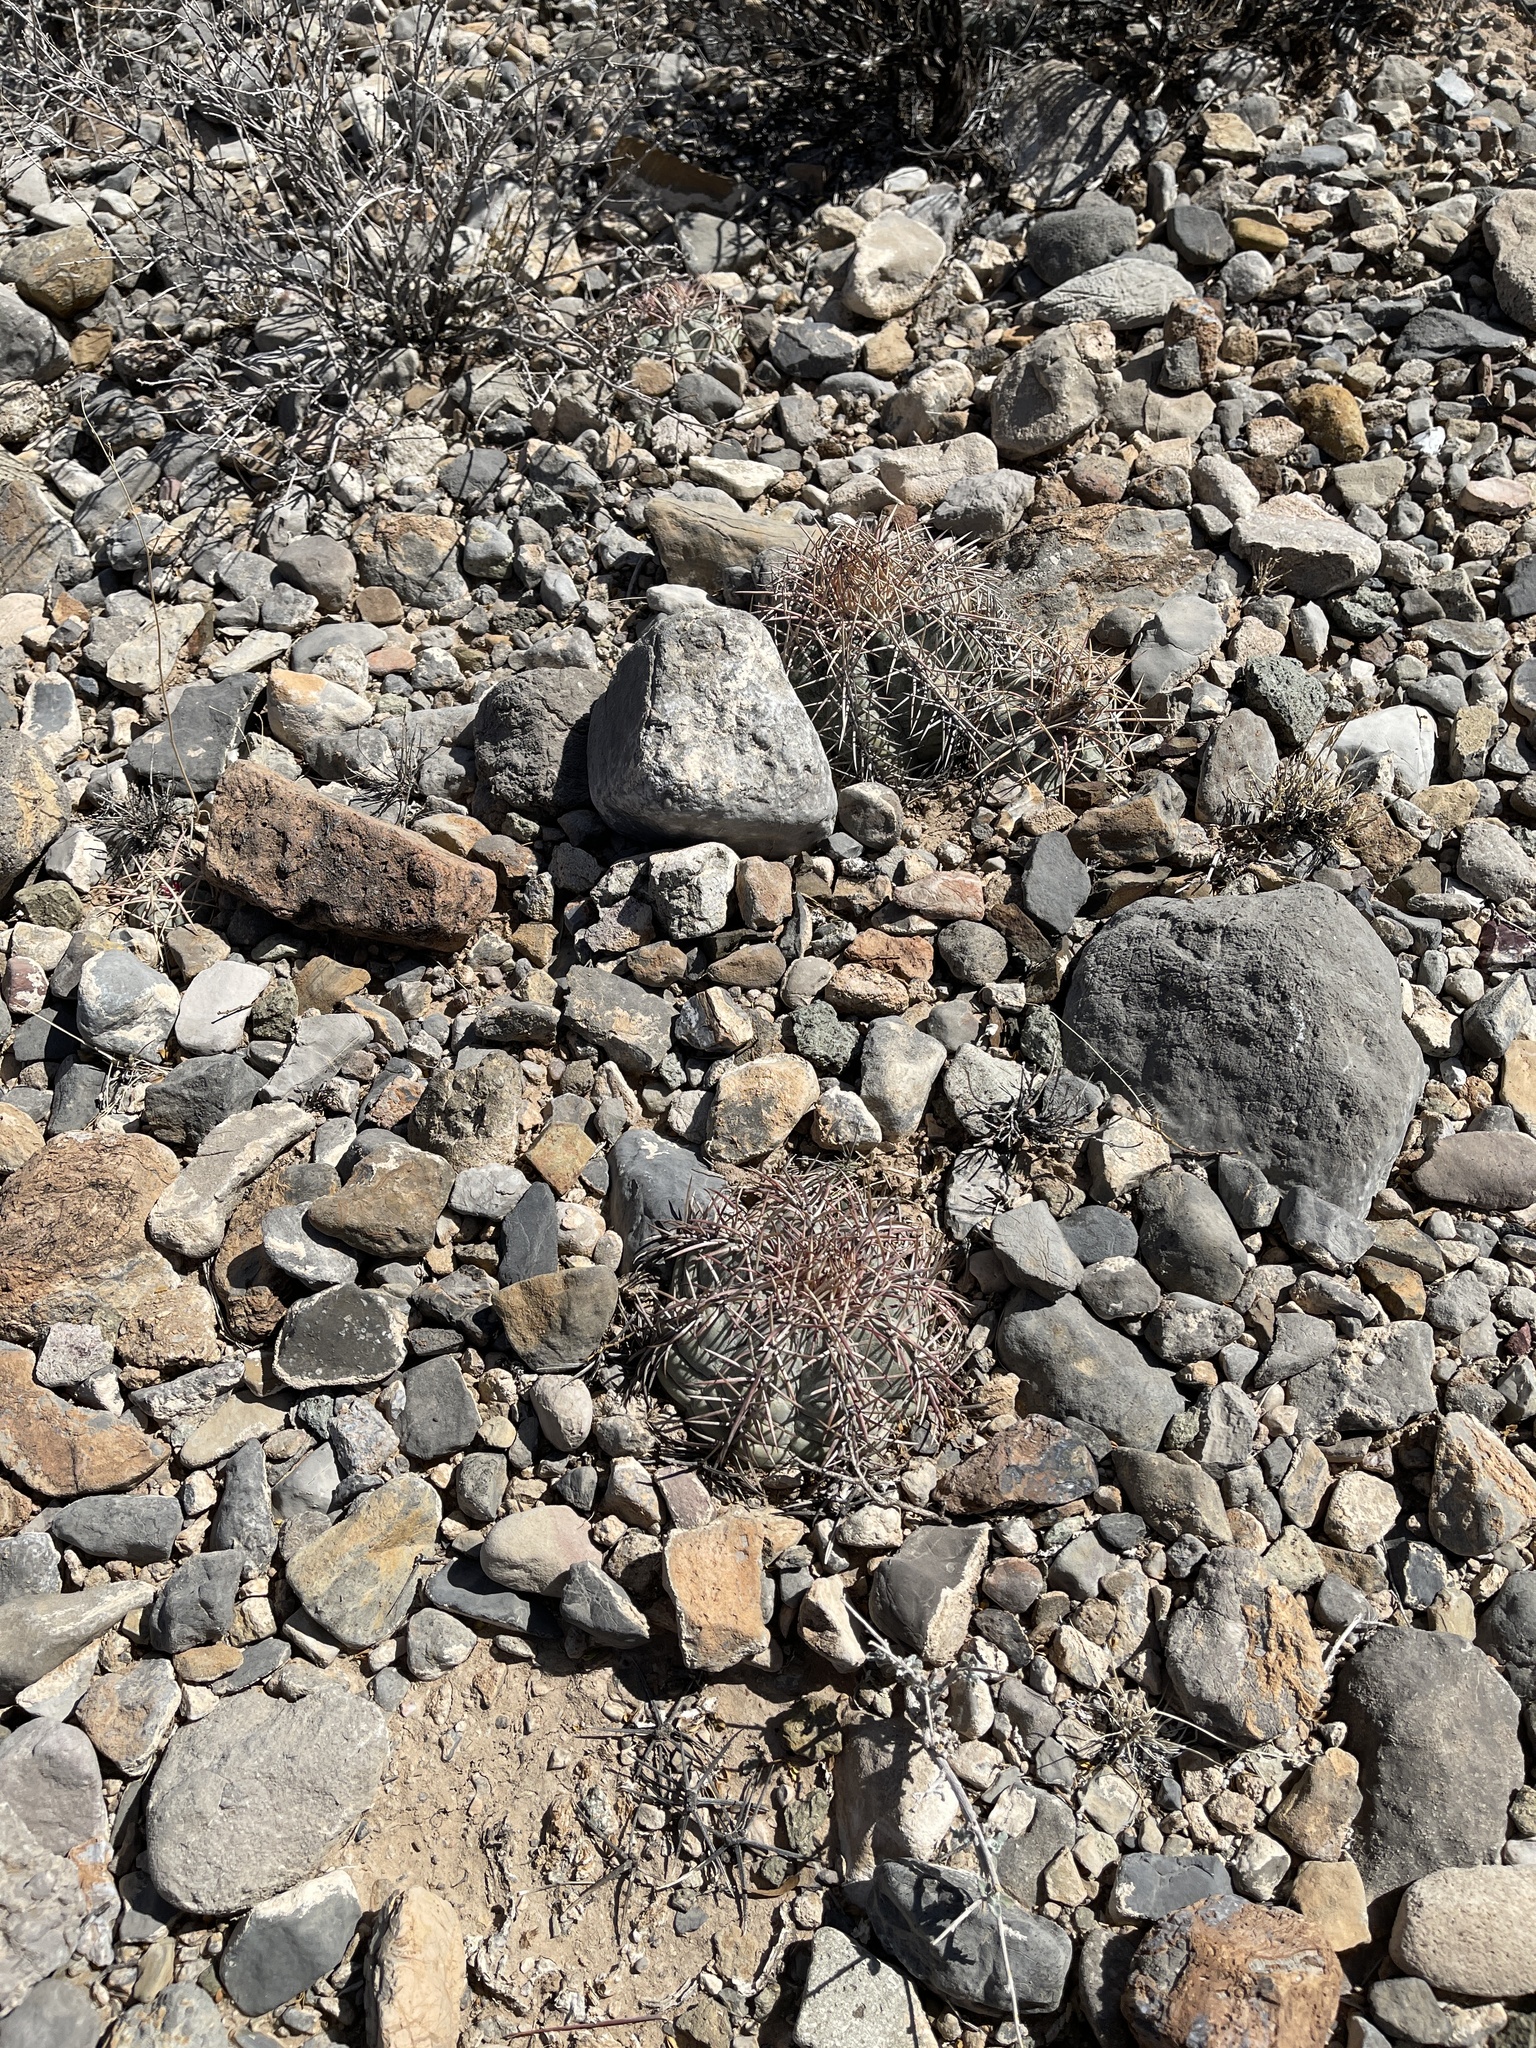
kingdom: Plantae
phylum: Tracheophyta
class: Magnoliopsida
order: Caryophyllales
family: Cactaceae
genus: Echinocactus
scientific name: Echinocactus horizonthalonius
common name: Devilshead
